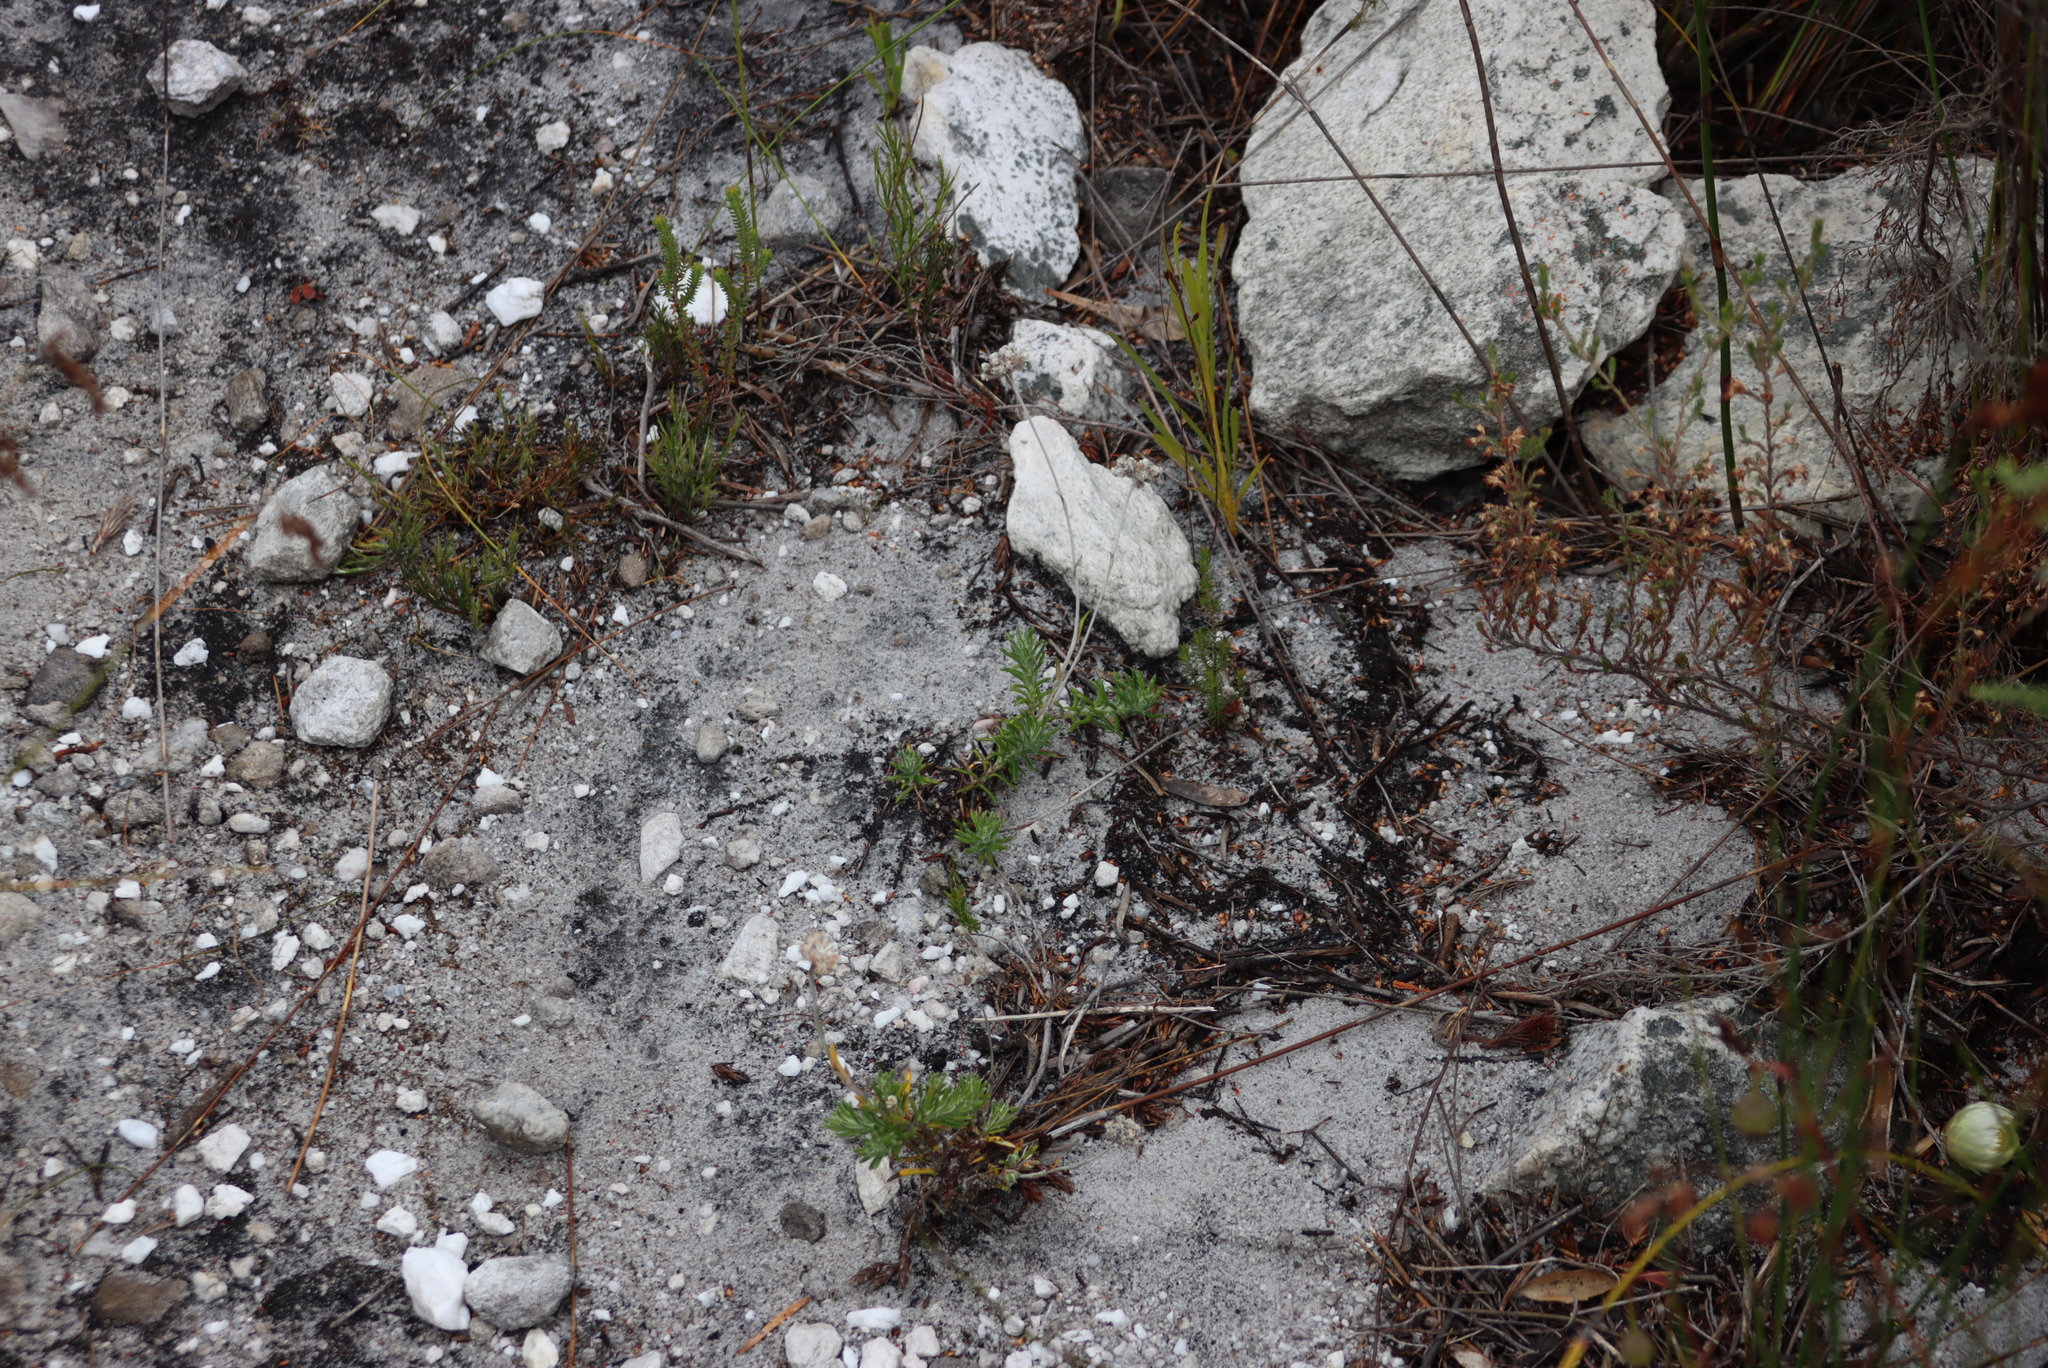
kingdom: Plantae
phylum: Tracheophyta
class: Magnoliopsida
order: Asterales
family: Asteraceae
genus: Anaxeton
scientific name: Anaxeton asperum
